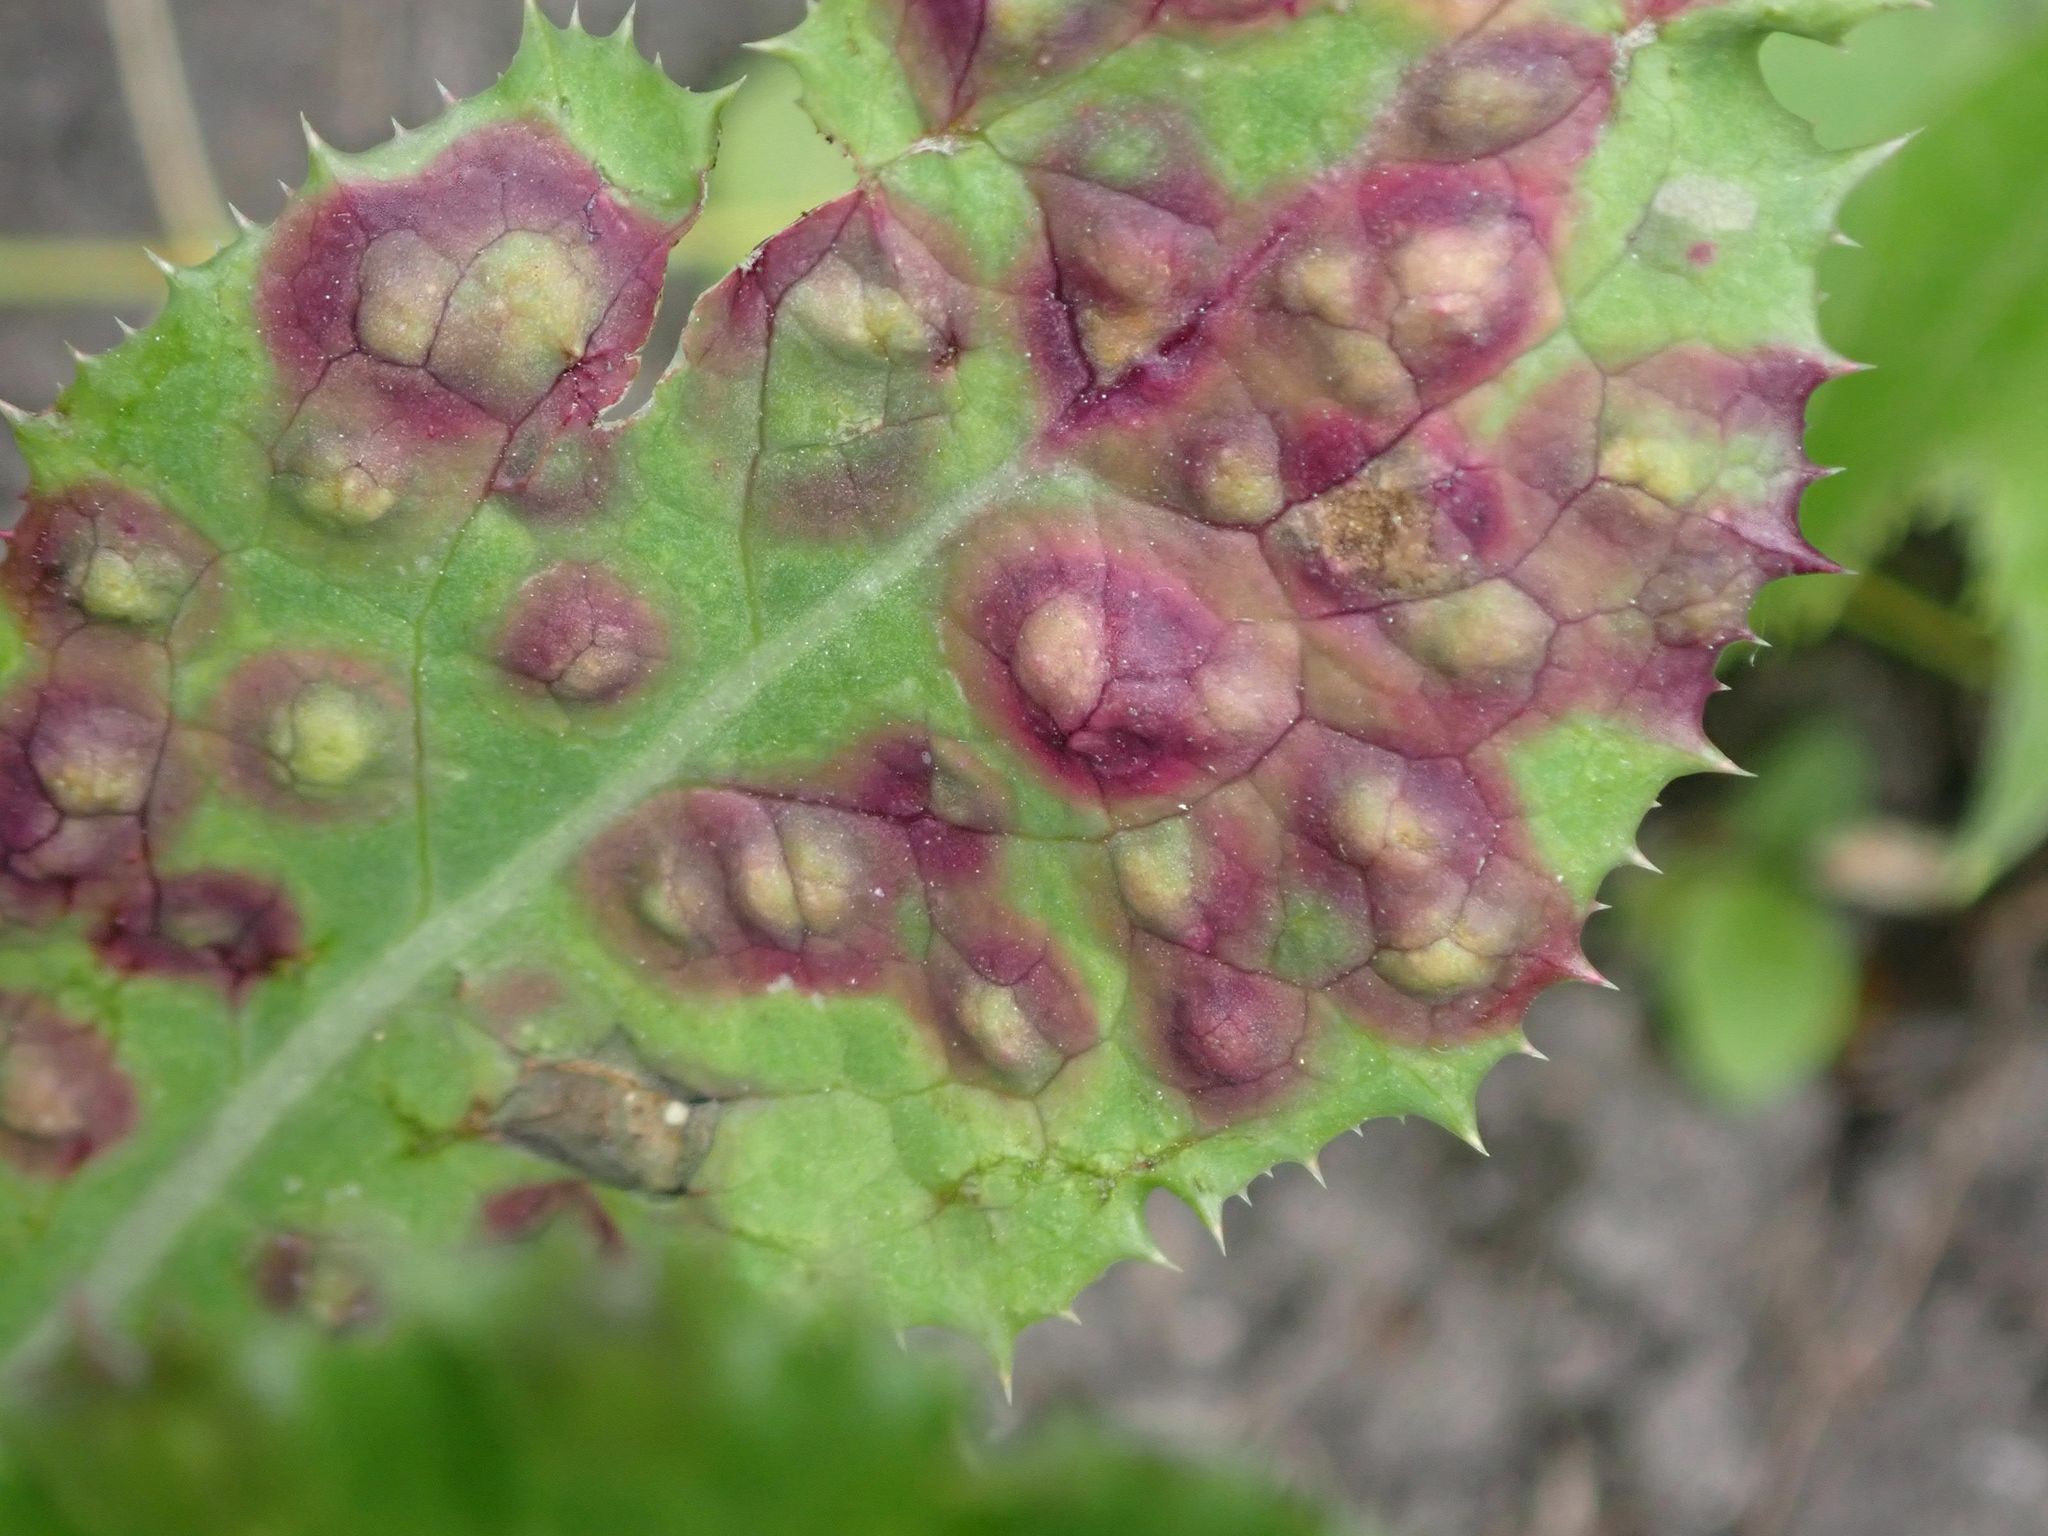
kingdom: Animalia
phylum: Arthropoda
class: Insecta
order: Diptera
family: Cecidomyiidae
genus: Cystiphora
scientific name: Cystiphora sonchi
